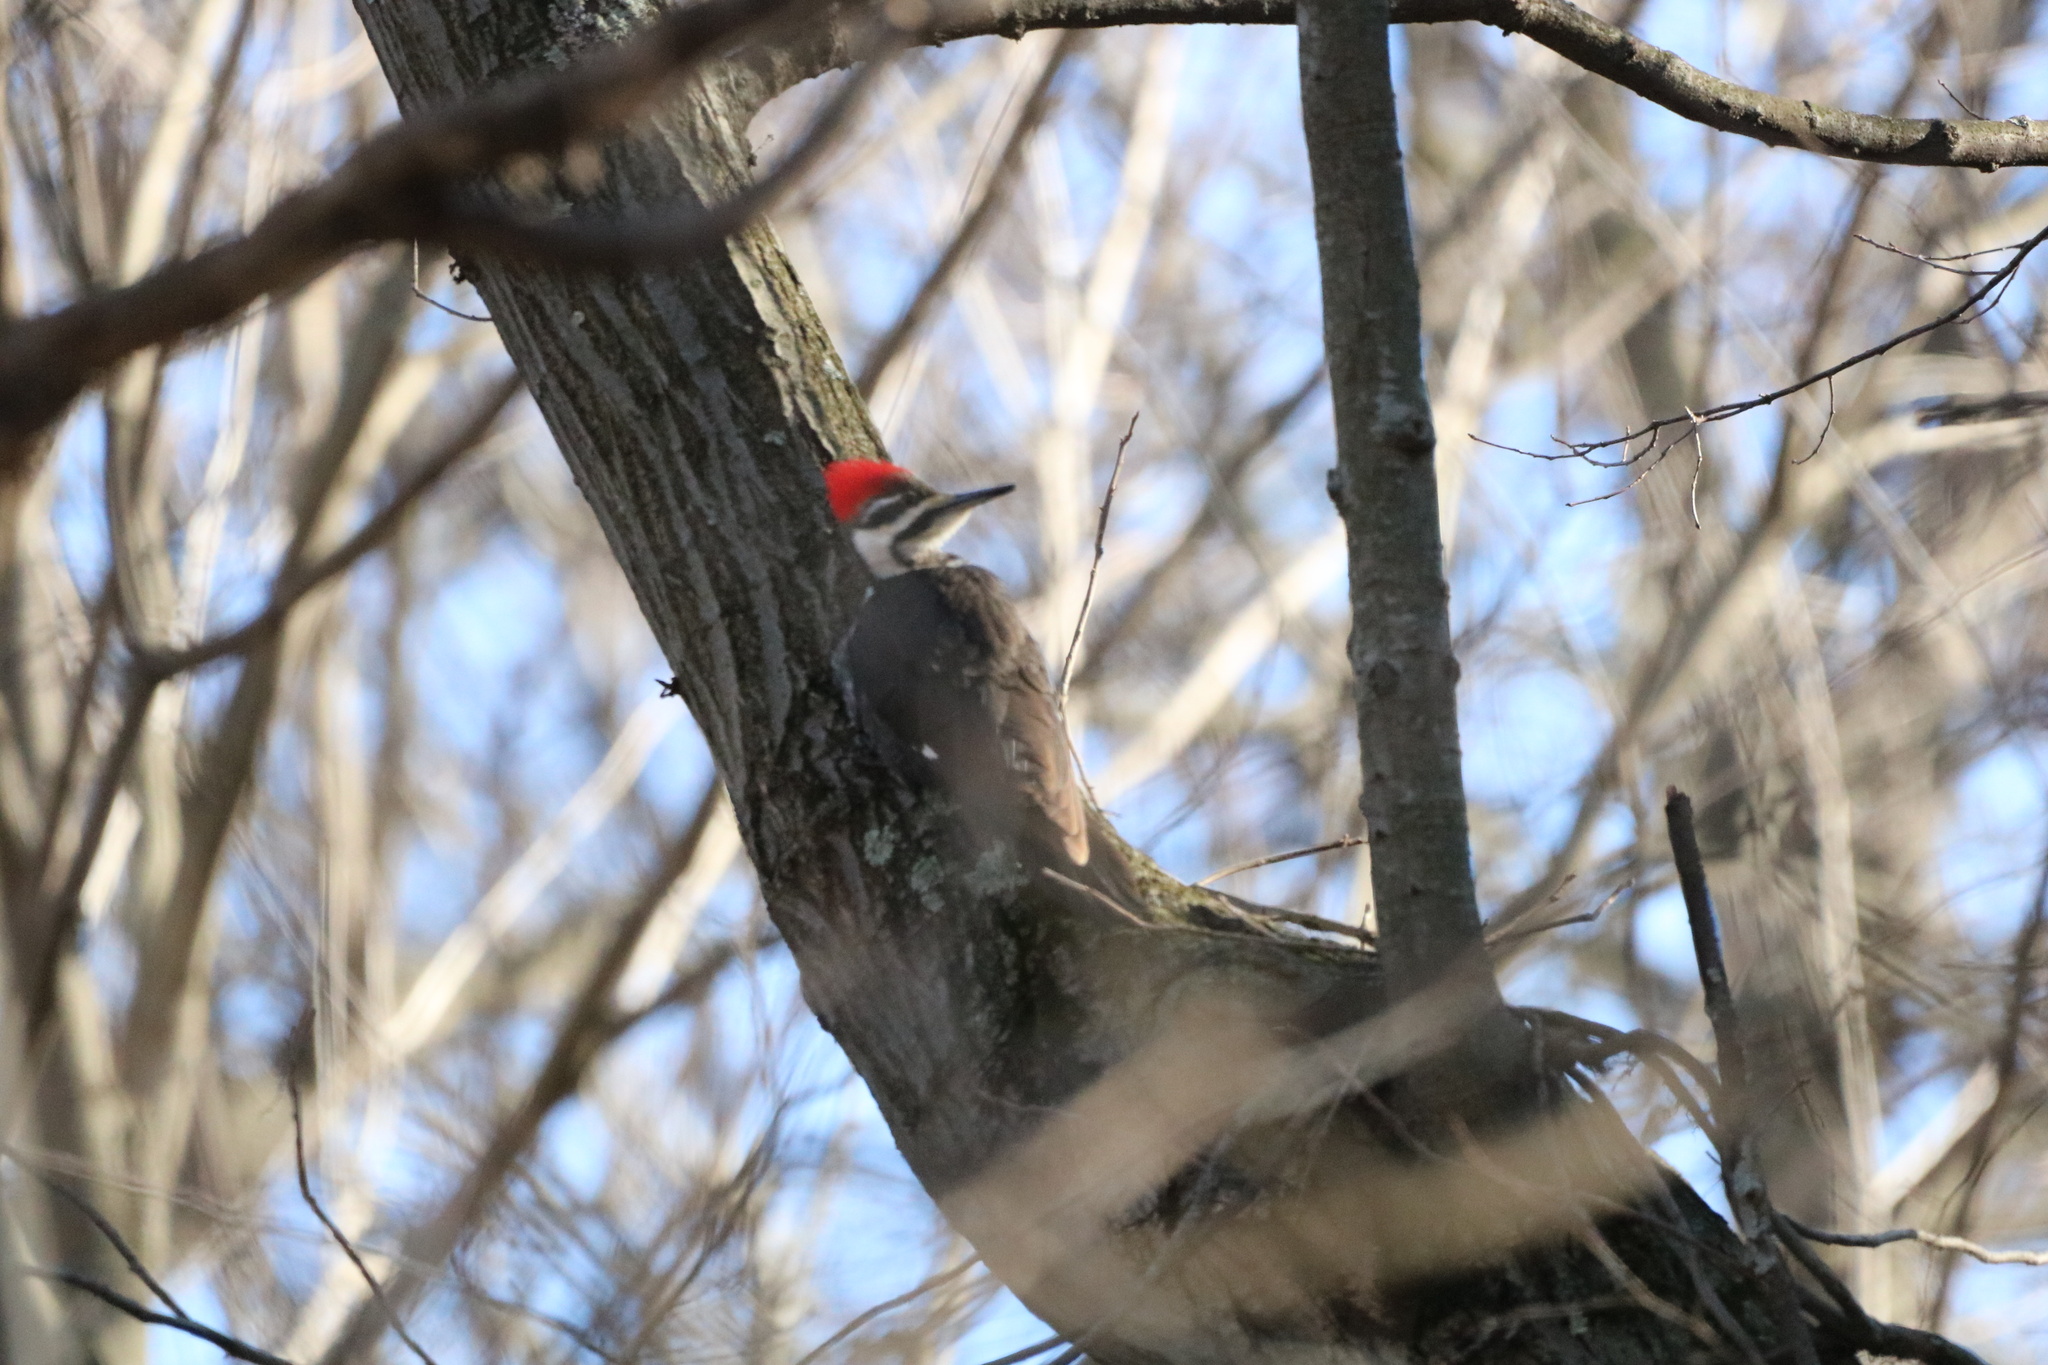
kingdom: Animalia
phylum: Chordata
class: Aves
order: Piciformes
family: Picidae
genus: Dryocopus
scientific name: Dryocopus pileatus
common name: Pileated woodpecker
